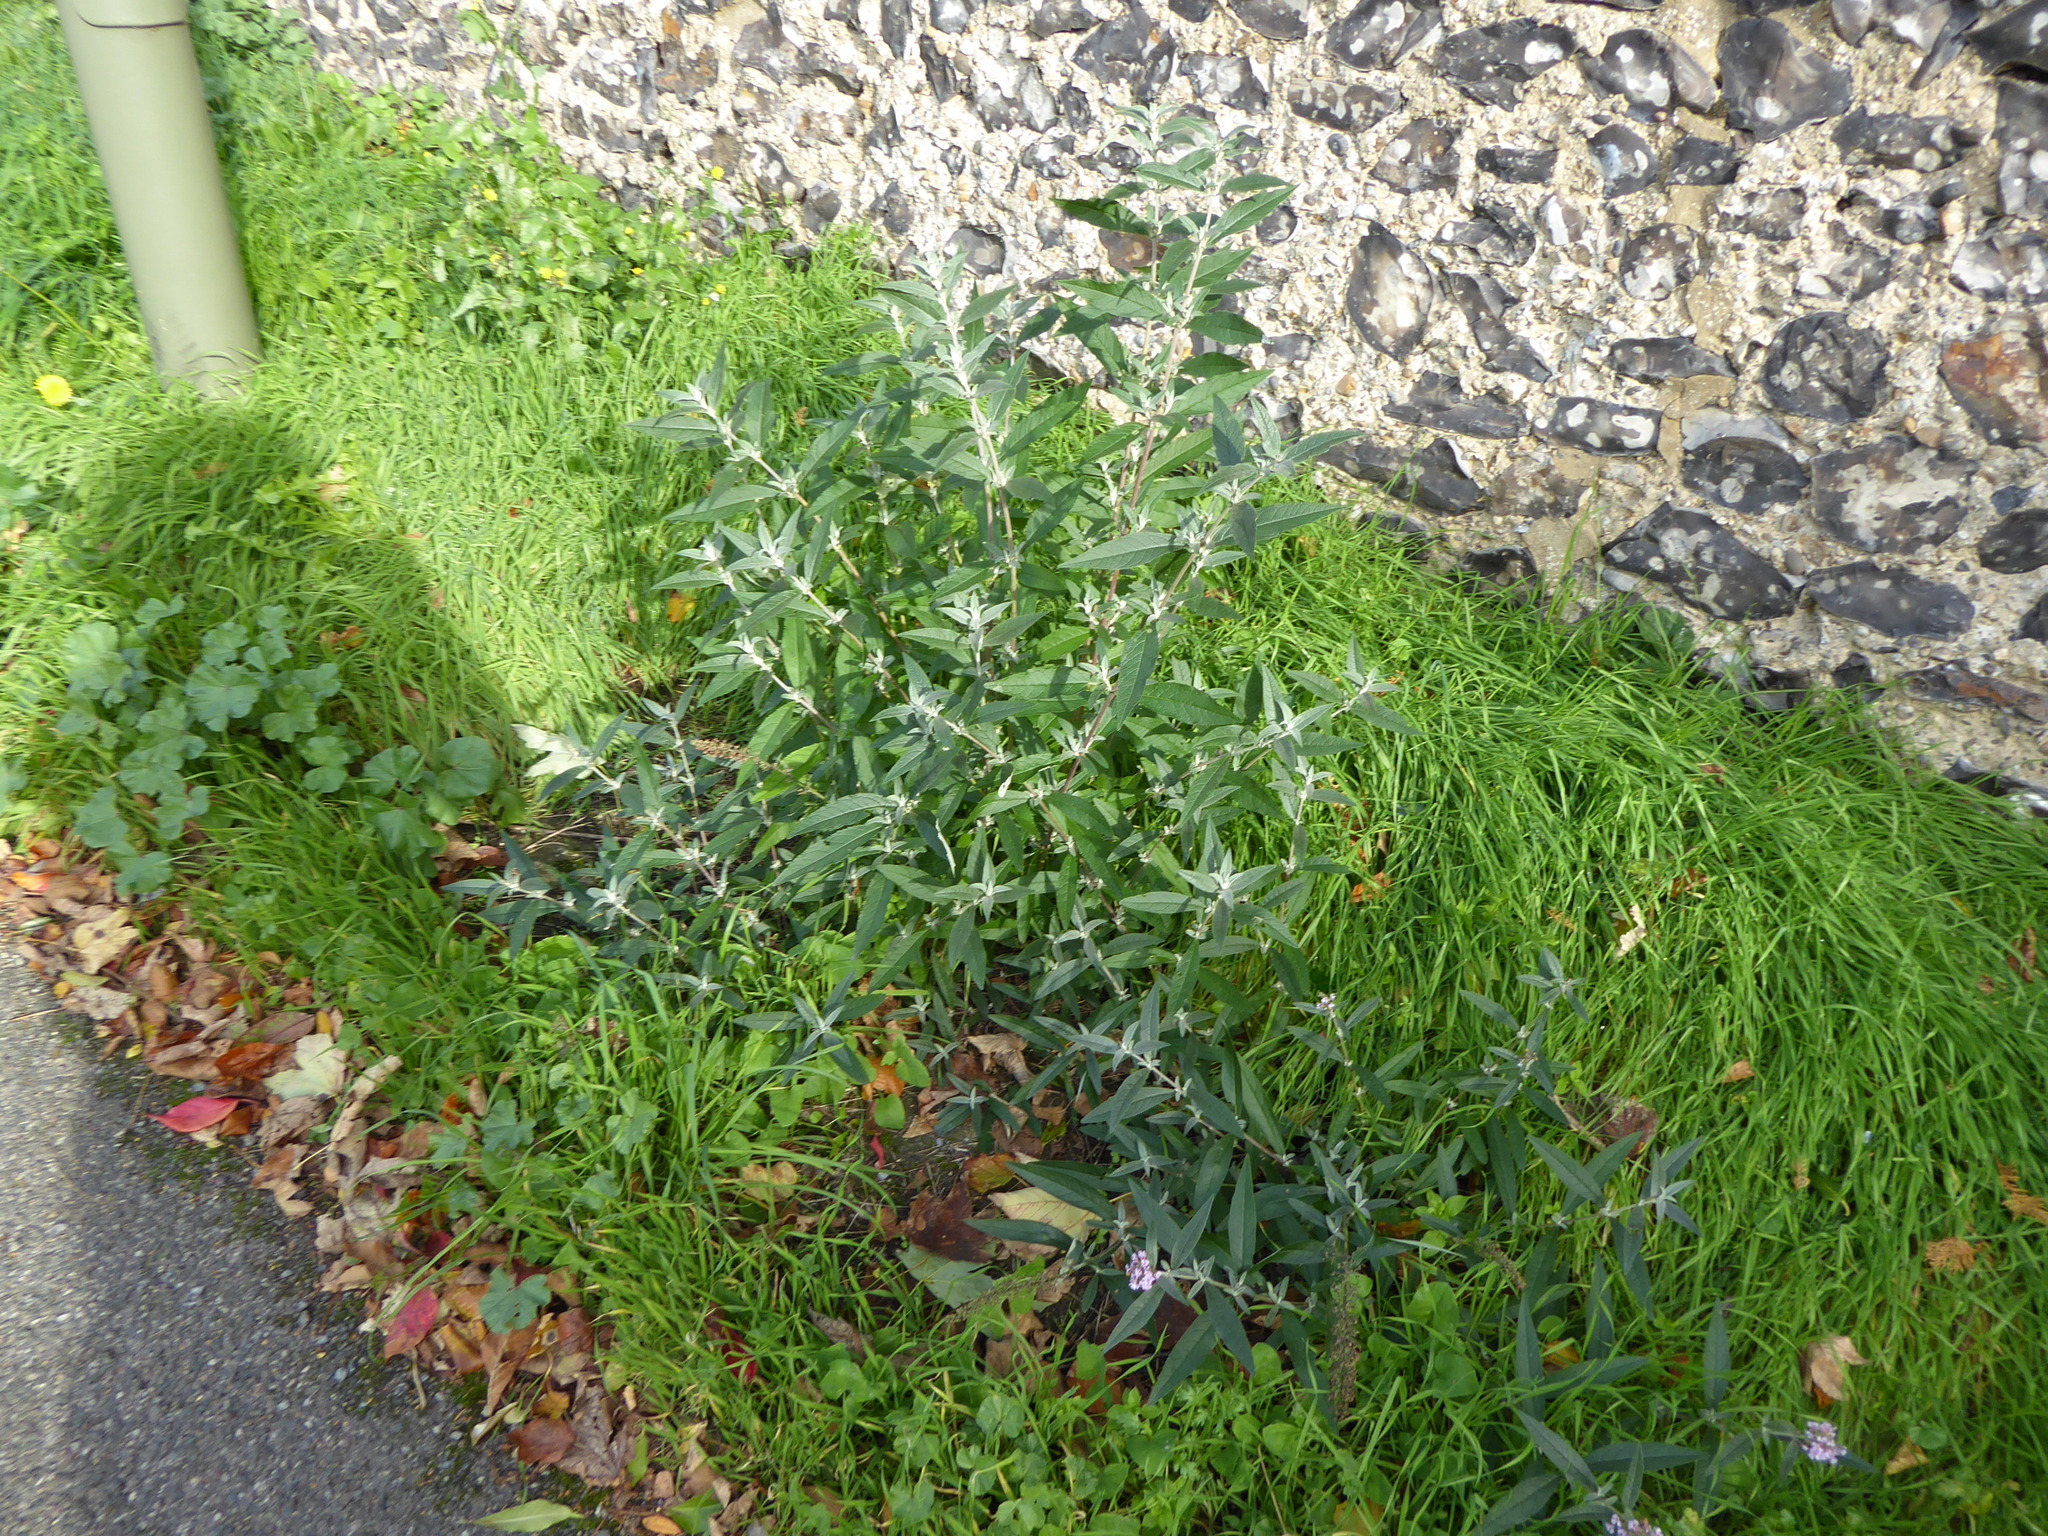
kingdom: Plantae
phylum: Tracheophyta
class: Magnoliopsida
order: Lamiales
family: Scrophulariaceae
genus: Buddleja
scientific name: Buddleja davidii
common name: Butterfly-bush
